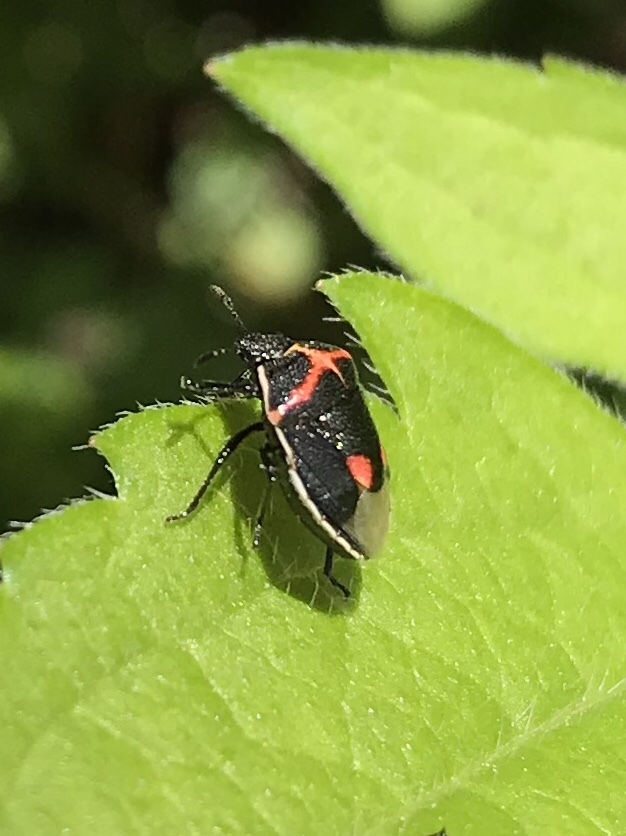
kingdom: Animalia
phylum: Arthropoda
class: Insecta
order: Hemiptera
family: Pentatomidae
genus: Cosmopepla
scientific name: Cosmopepla lintneriana
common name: Twice-stabbed stink bug
